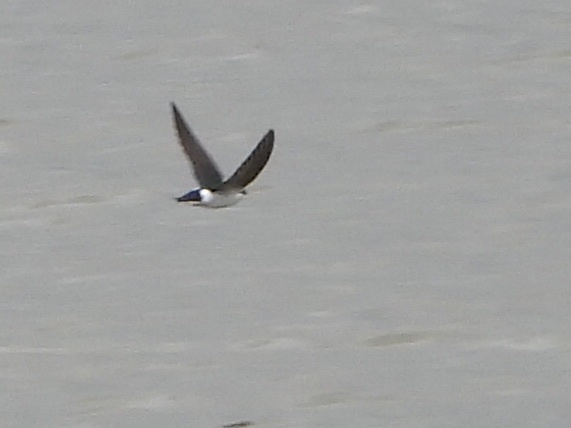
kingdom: Animalia
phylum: Chordata
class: Aves
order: Passeriformes
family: Hirundinidae
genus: Tachycineta
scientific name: Tachycineta thalassina
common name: Violet-green swallow
